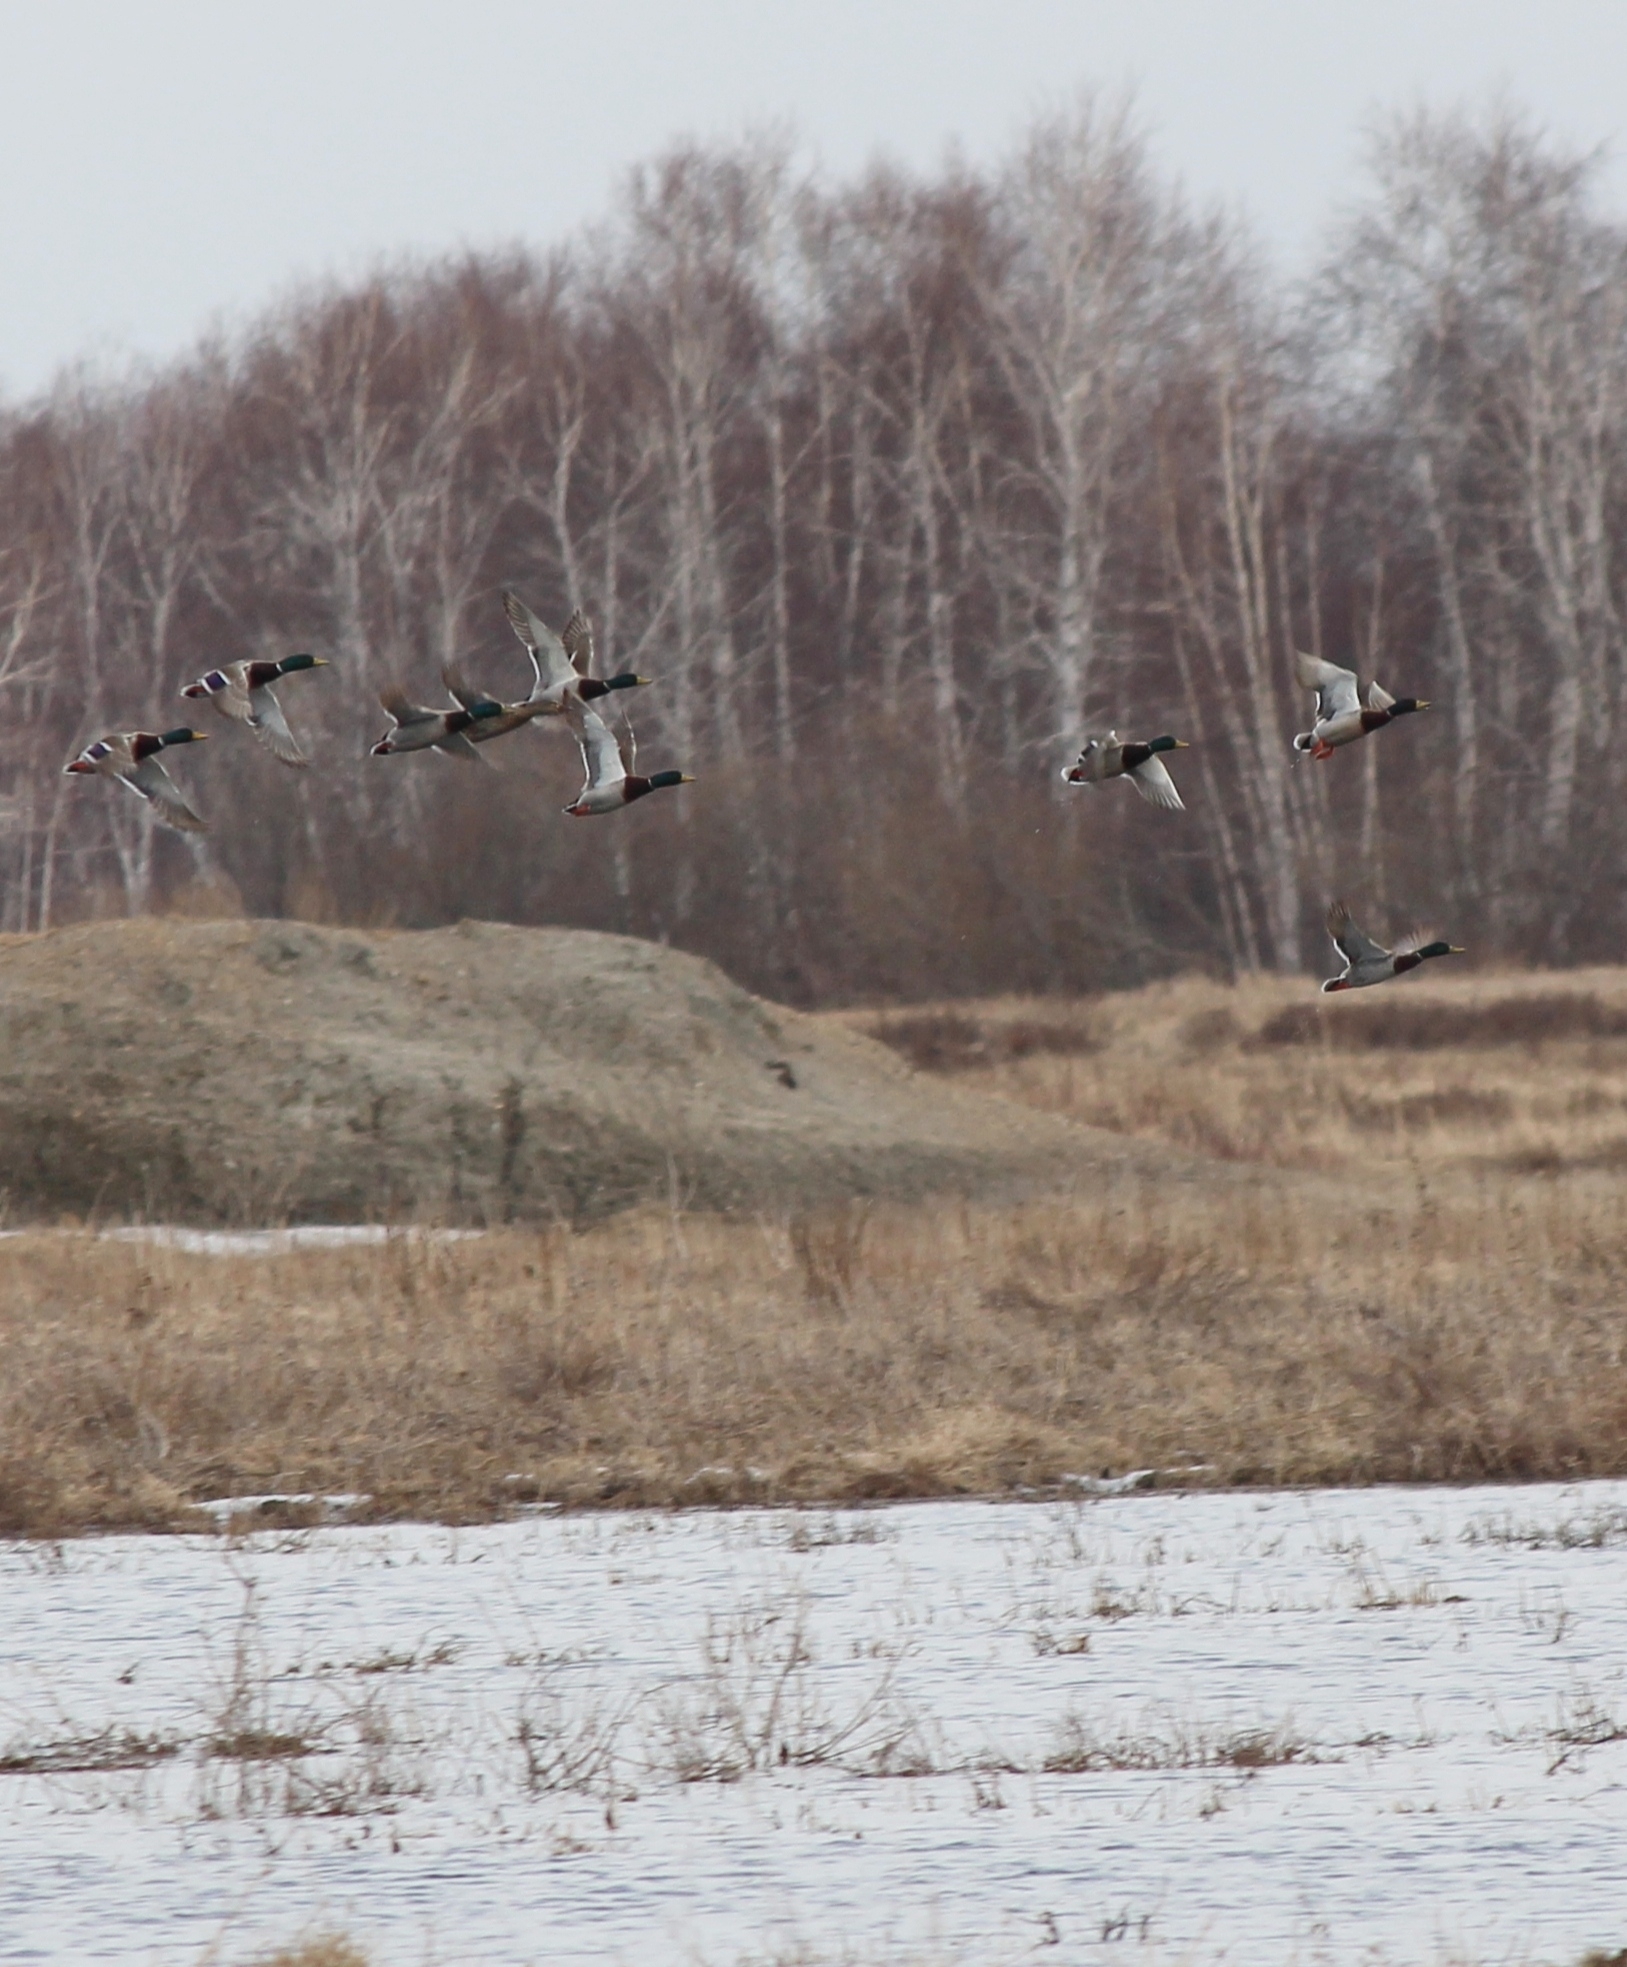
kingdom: Animalia
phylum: Chordata
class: Aves
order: Anseriformes
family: Anatidae
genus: Anas
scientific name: Anas platyrhynchos
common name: Mallard
